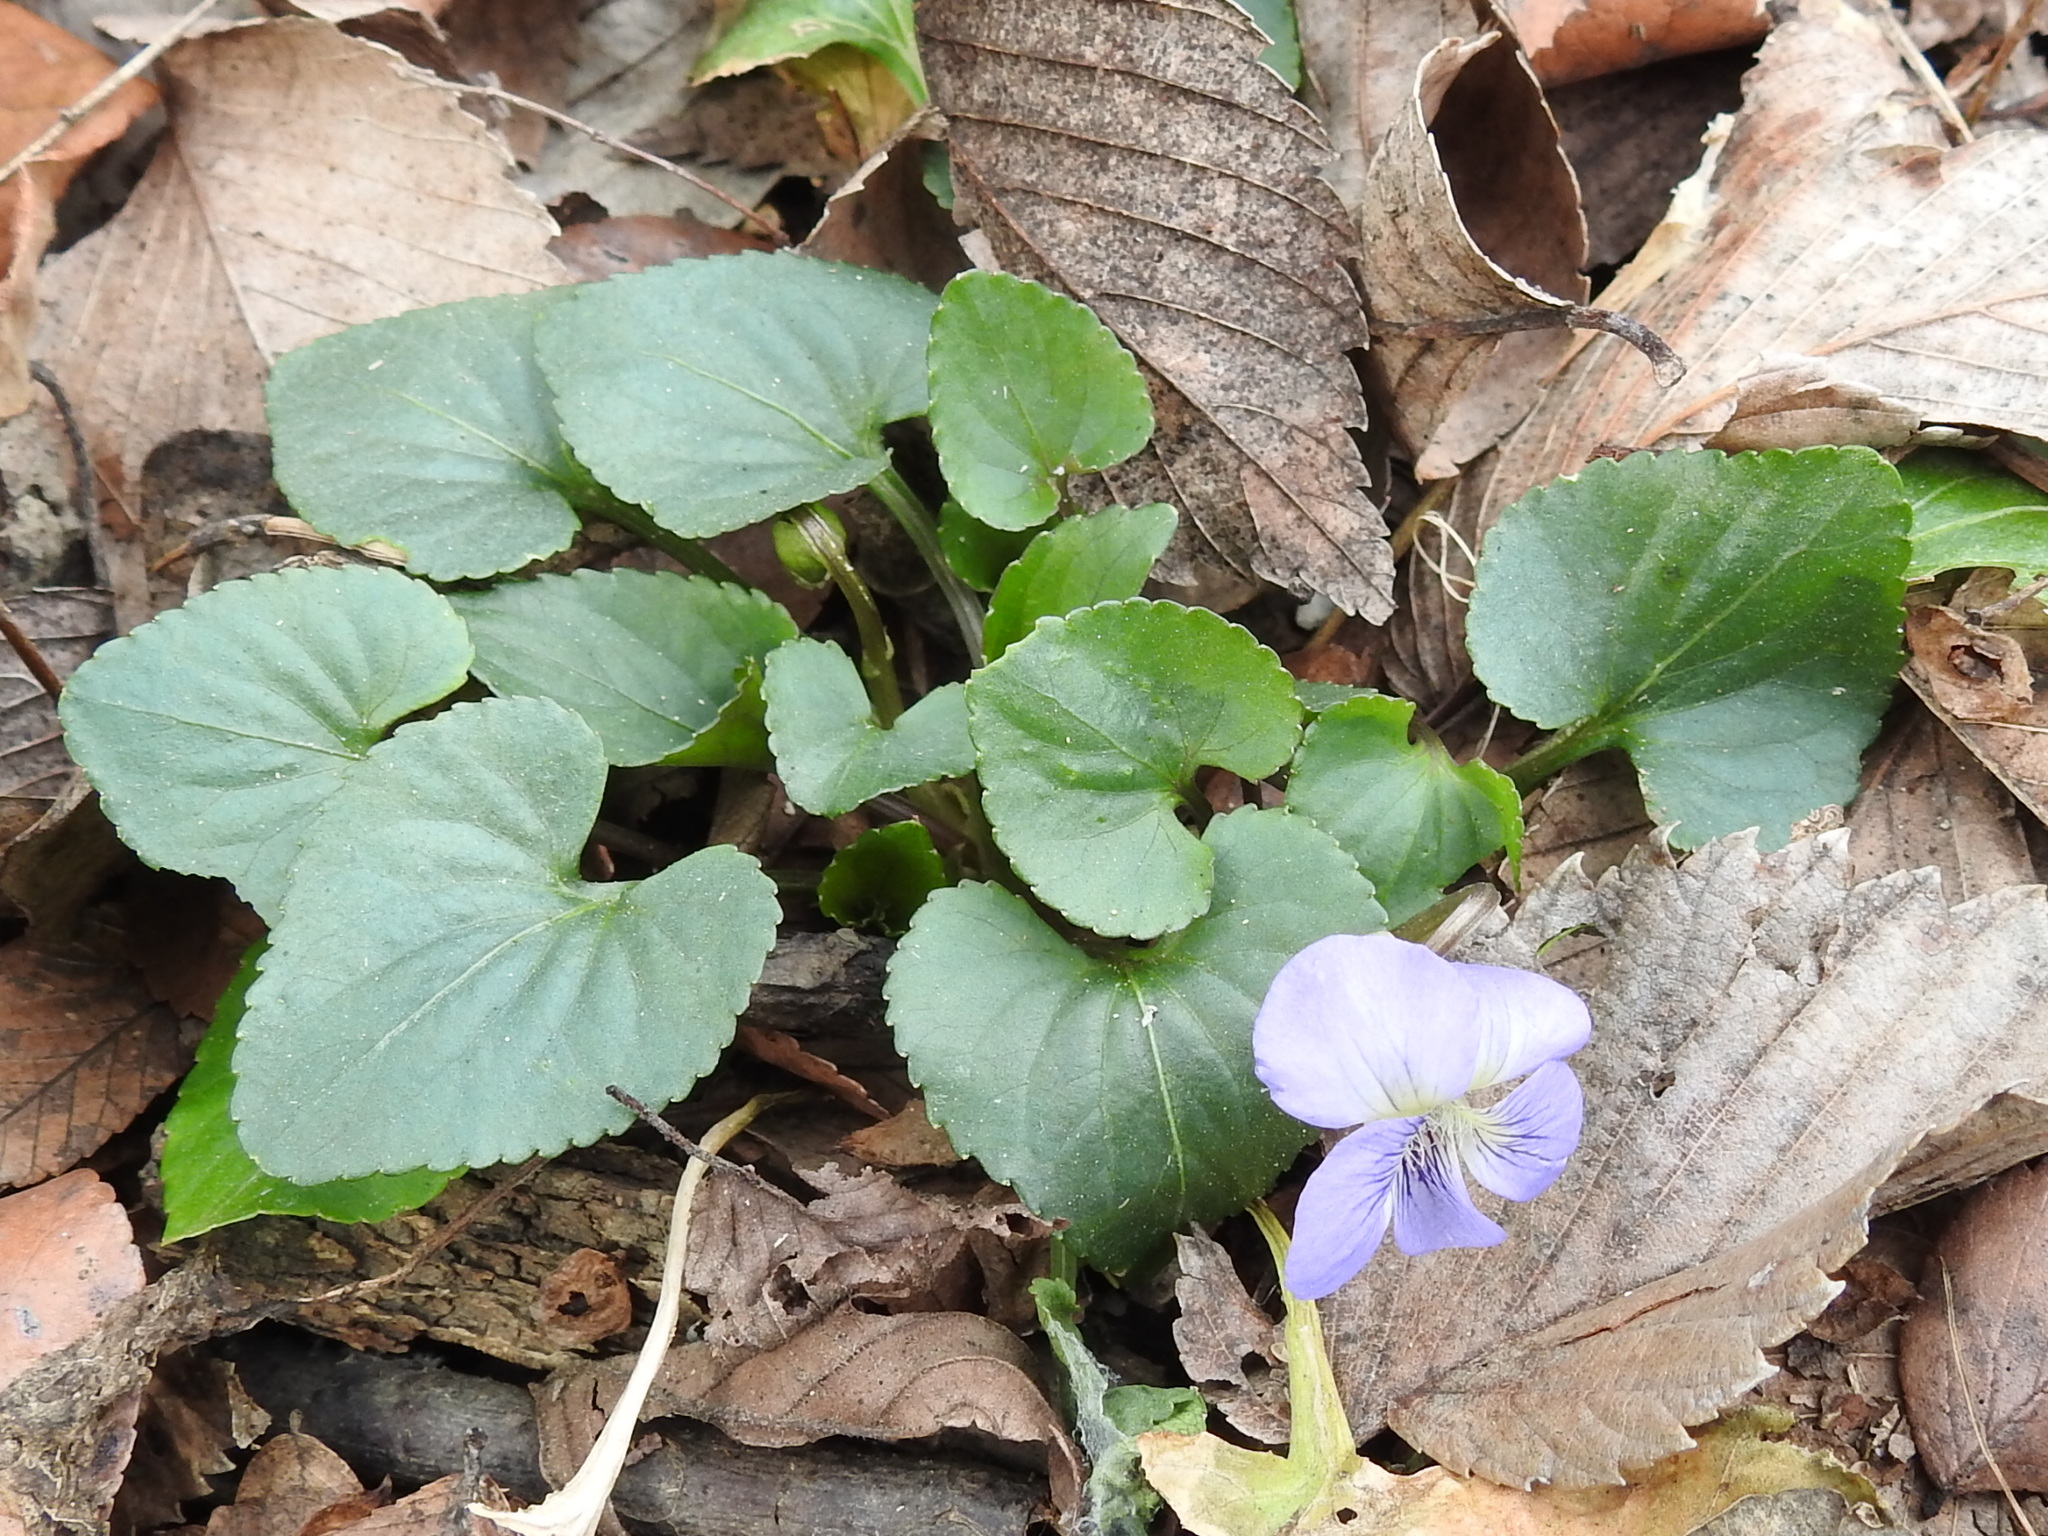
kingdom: Plantae
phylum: Tracheophyta
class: Magnoliopsida
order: Malpighiales
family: Violaceae
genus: Viola
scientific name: Viola sororia
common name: Dooryard violet
